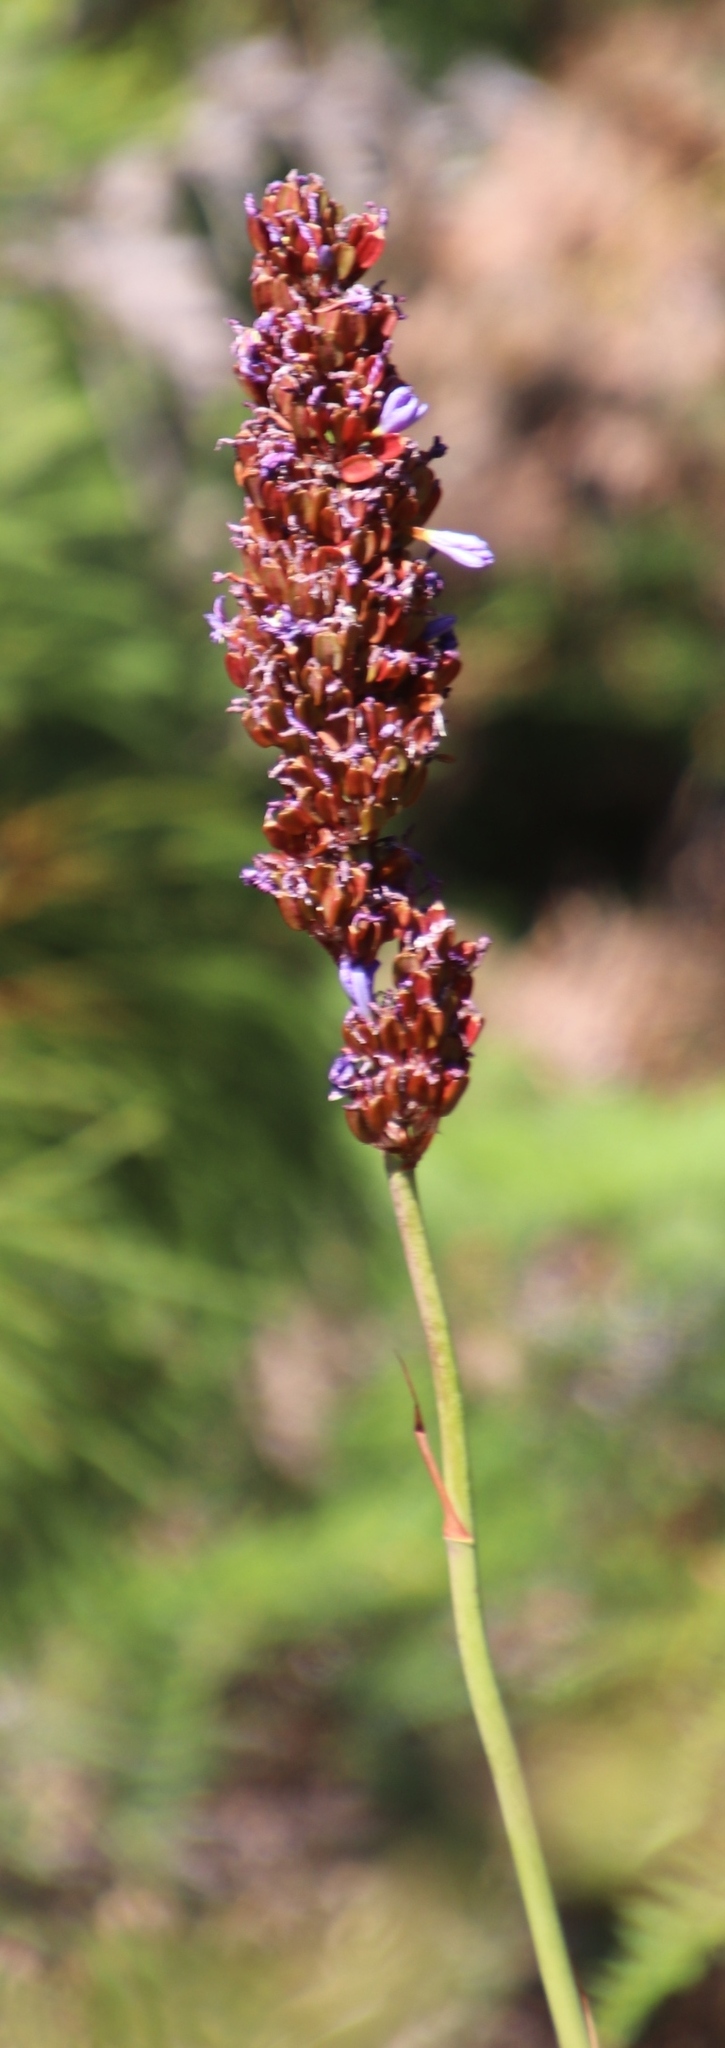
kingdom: Plantae
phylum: Tracheophyta
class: Liliopsida
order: Asparagales
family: Iridaceae
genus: Aristea
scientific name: Aristea capitata
